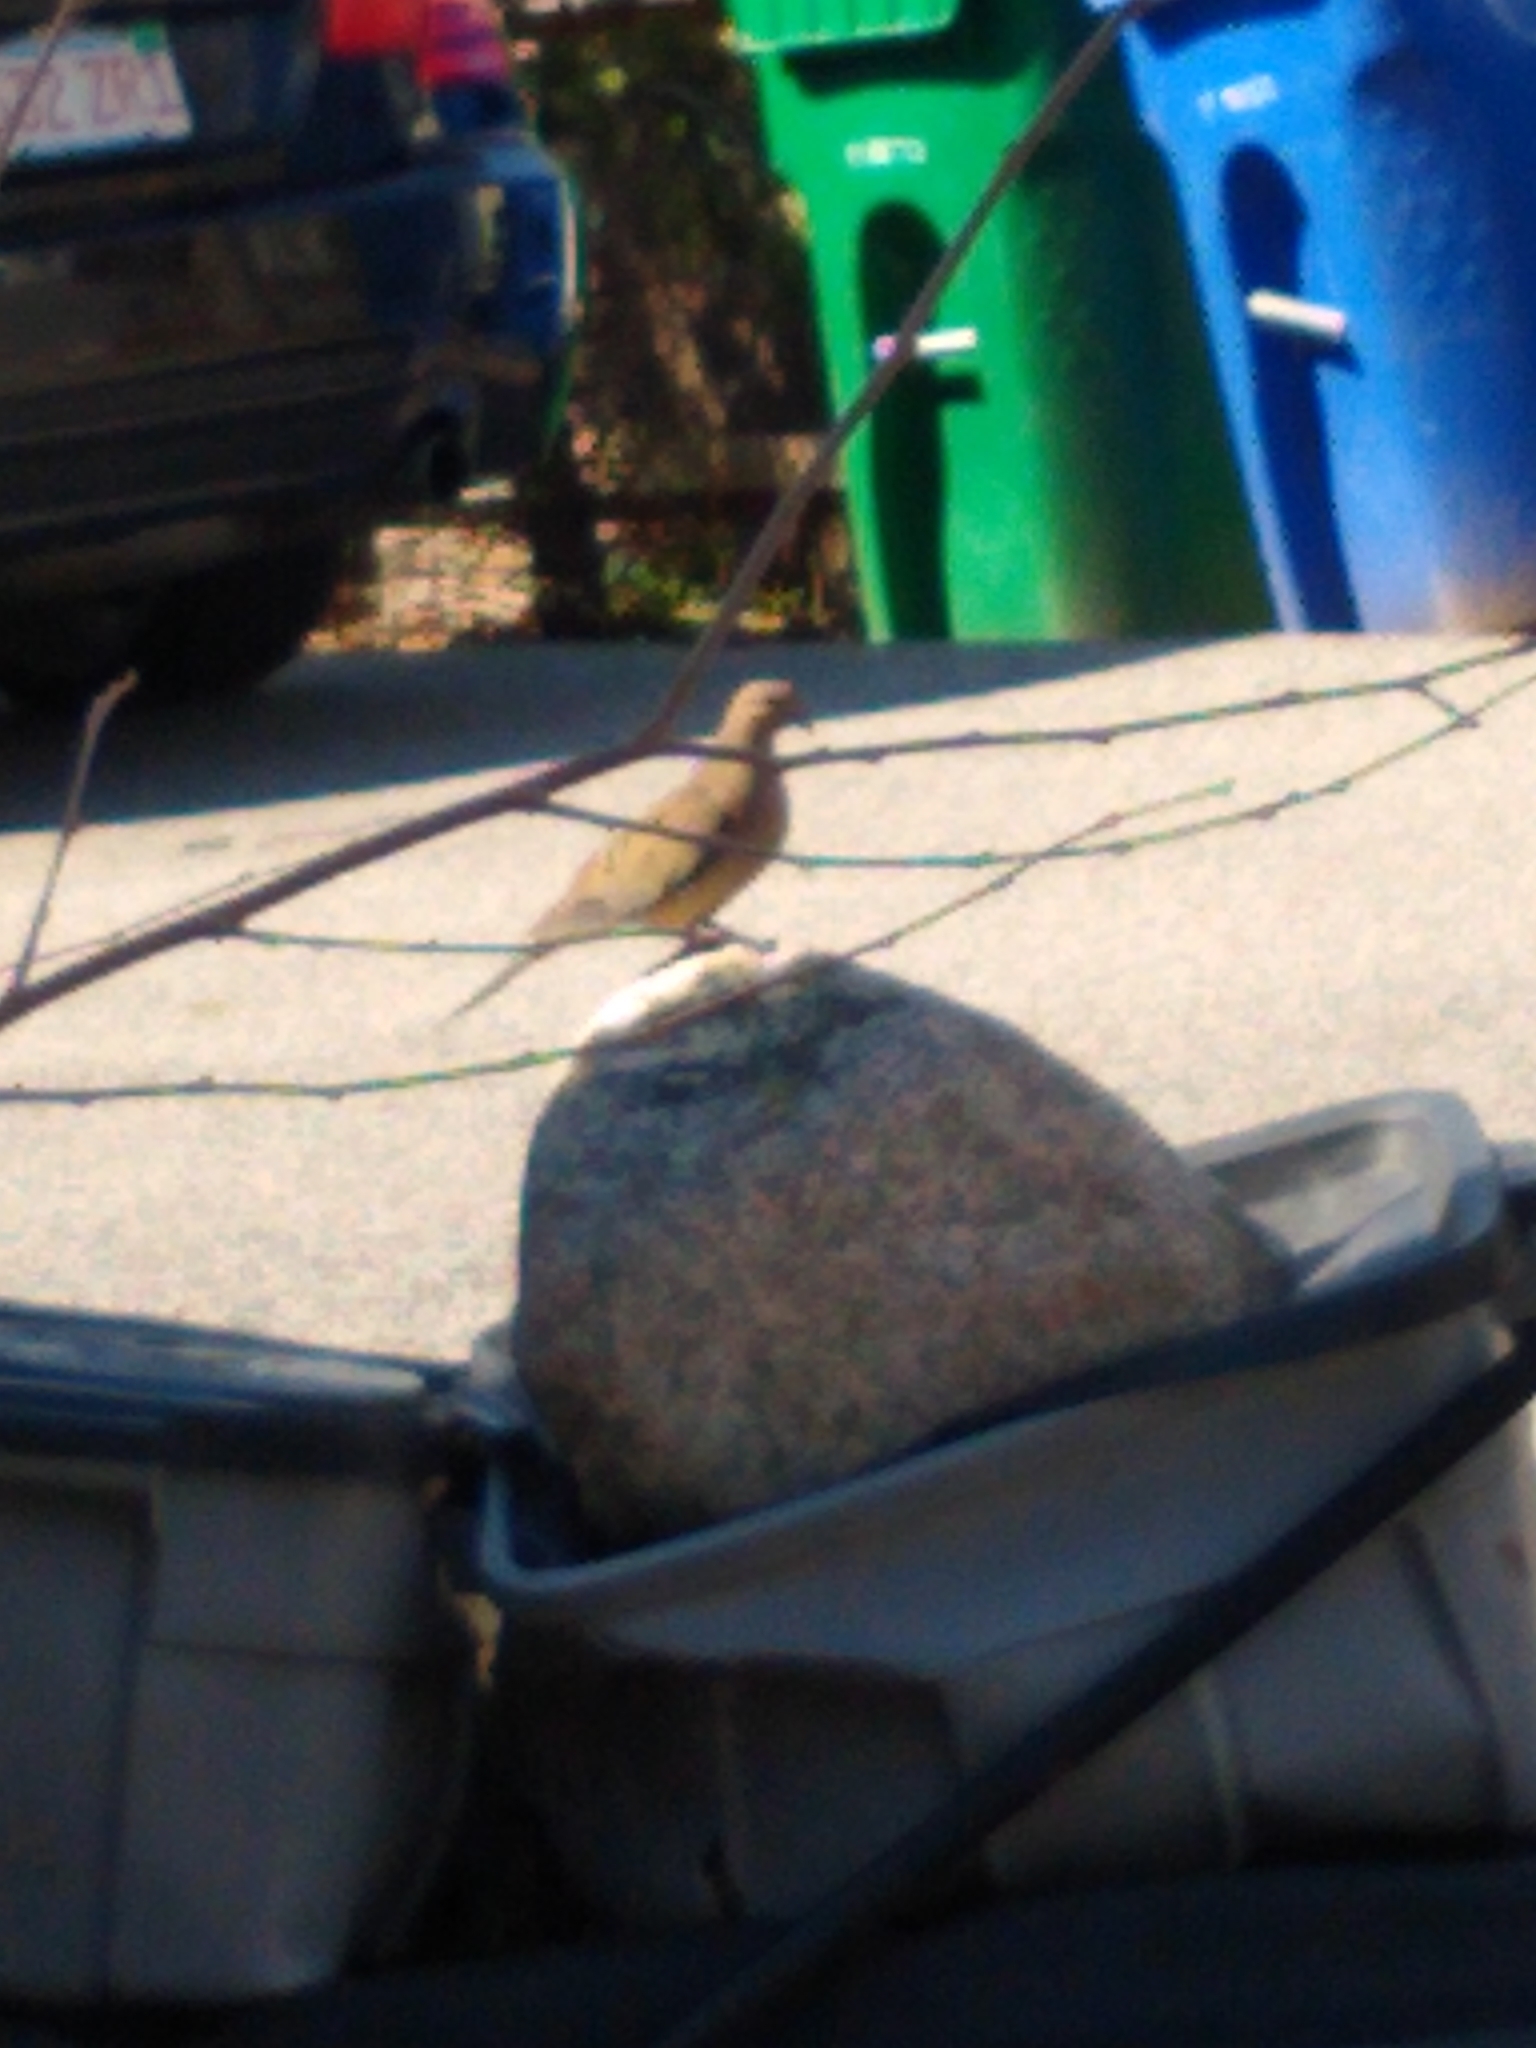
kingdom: Animalia
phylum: Chordata
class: Aves
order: Columbiformes
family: Columbidae
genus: Zenaida
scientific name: Zenaida macroura
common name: Mourning dove
